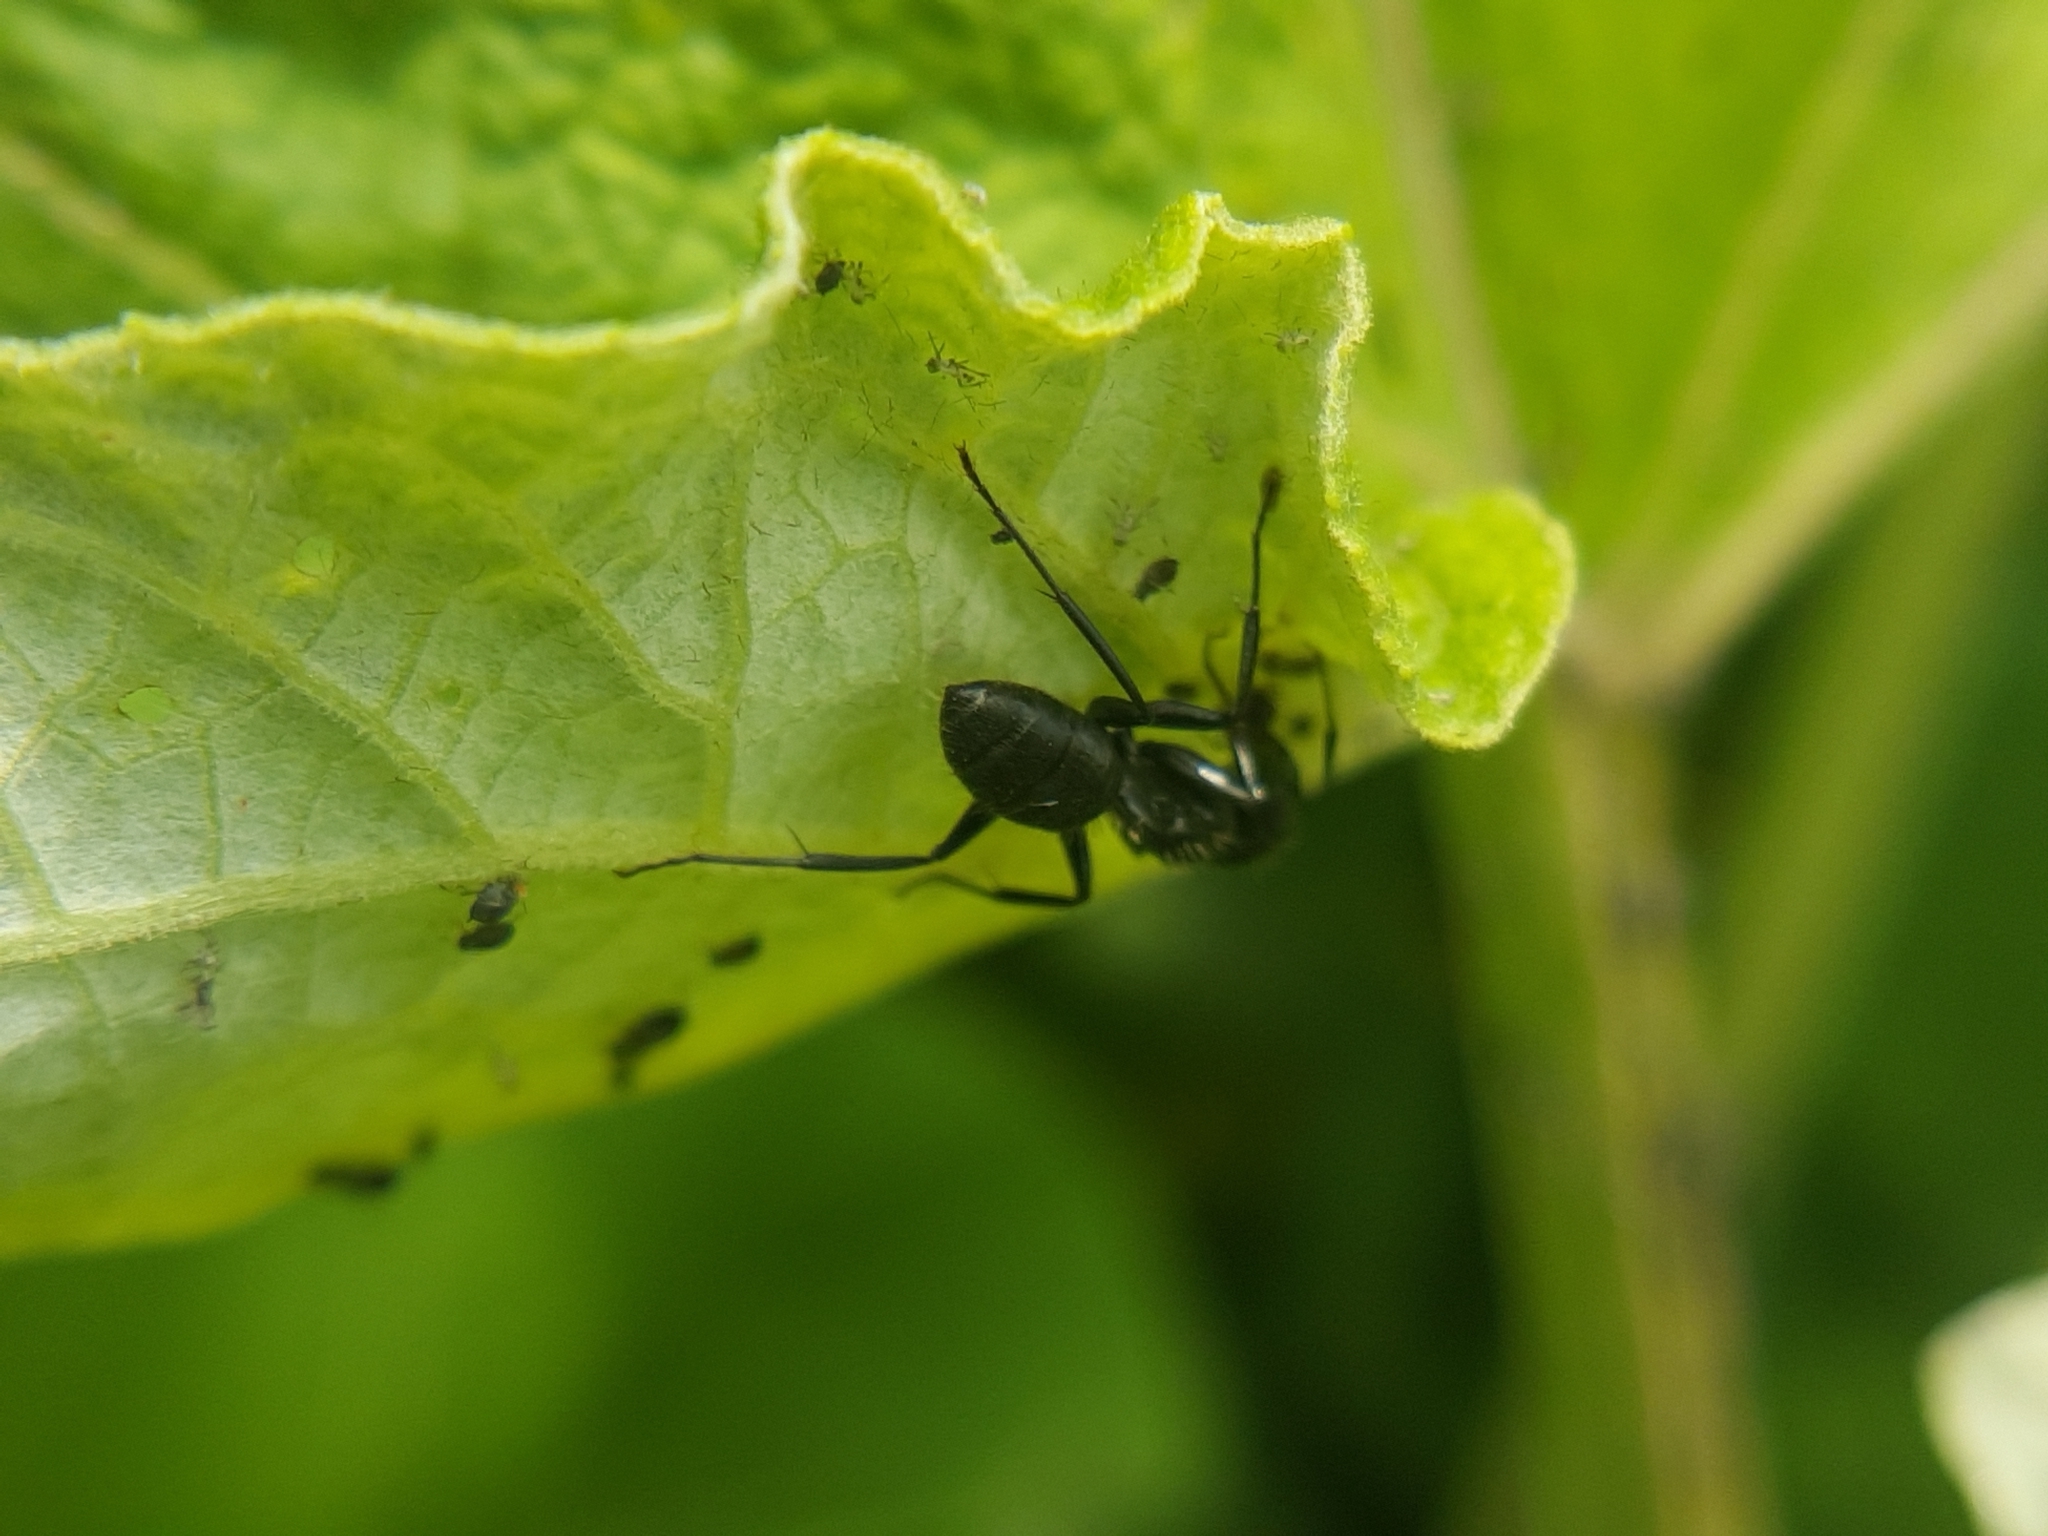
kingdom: Animalia
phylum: Arthropoda
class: Insecta
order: Hymenoptera
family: Formicidae
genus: Camponotus
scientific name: Camponotus vagus
